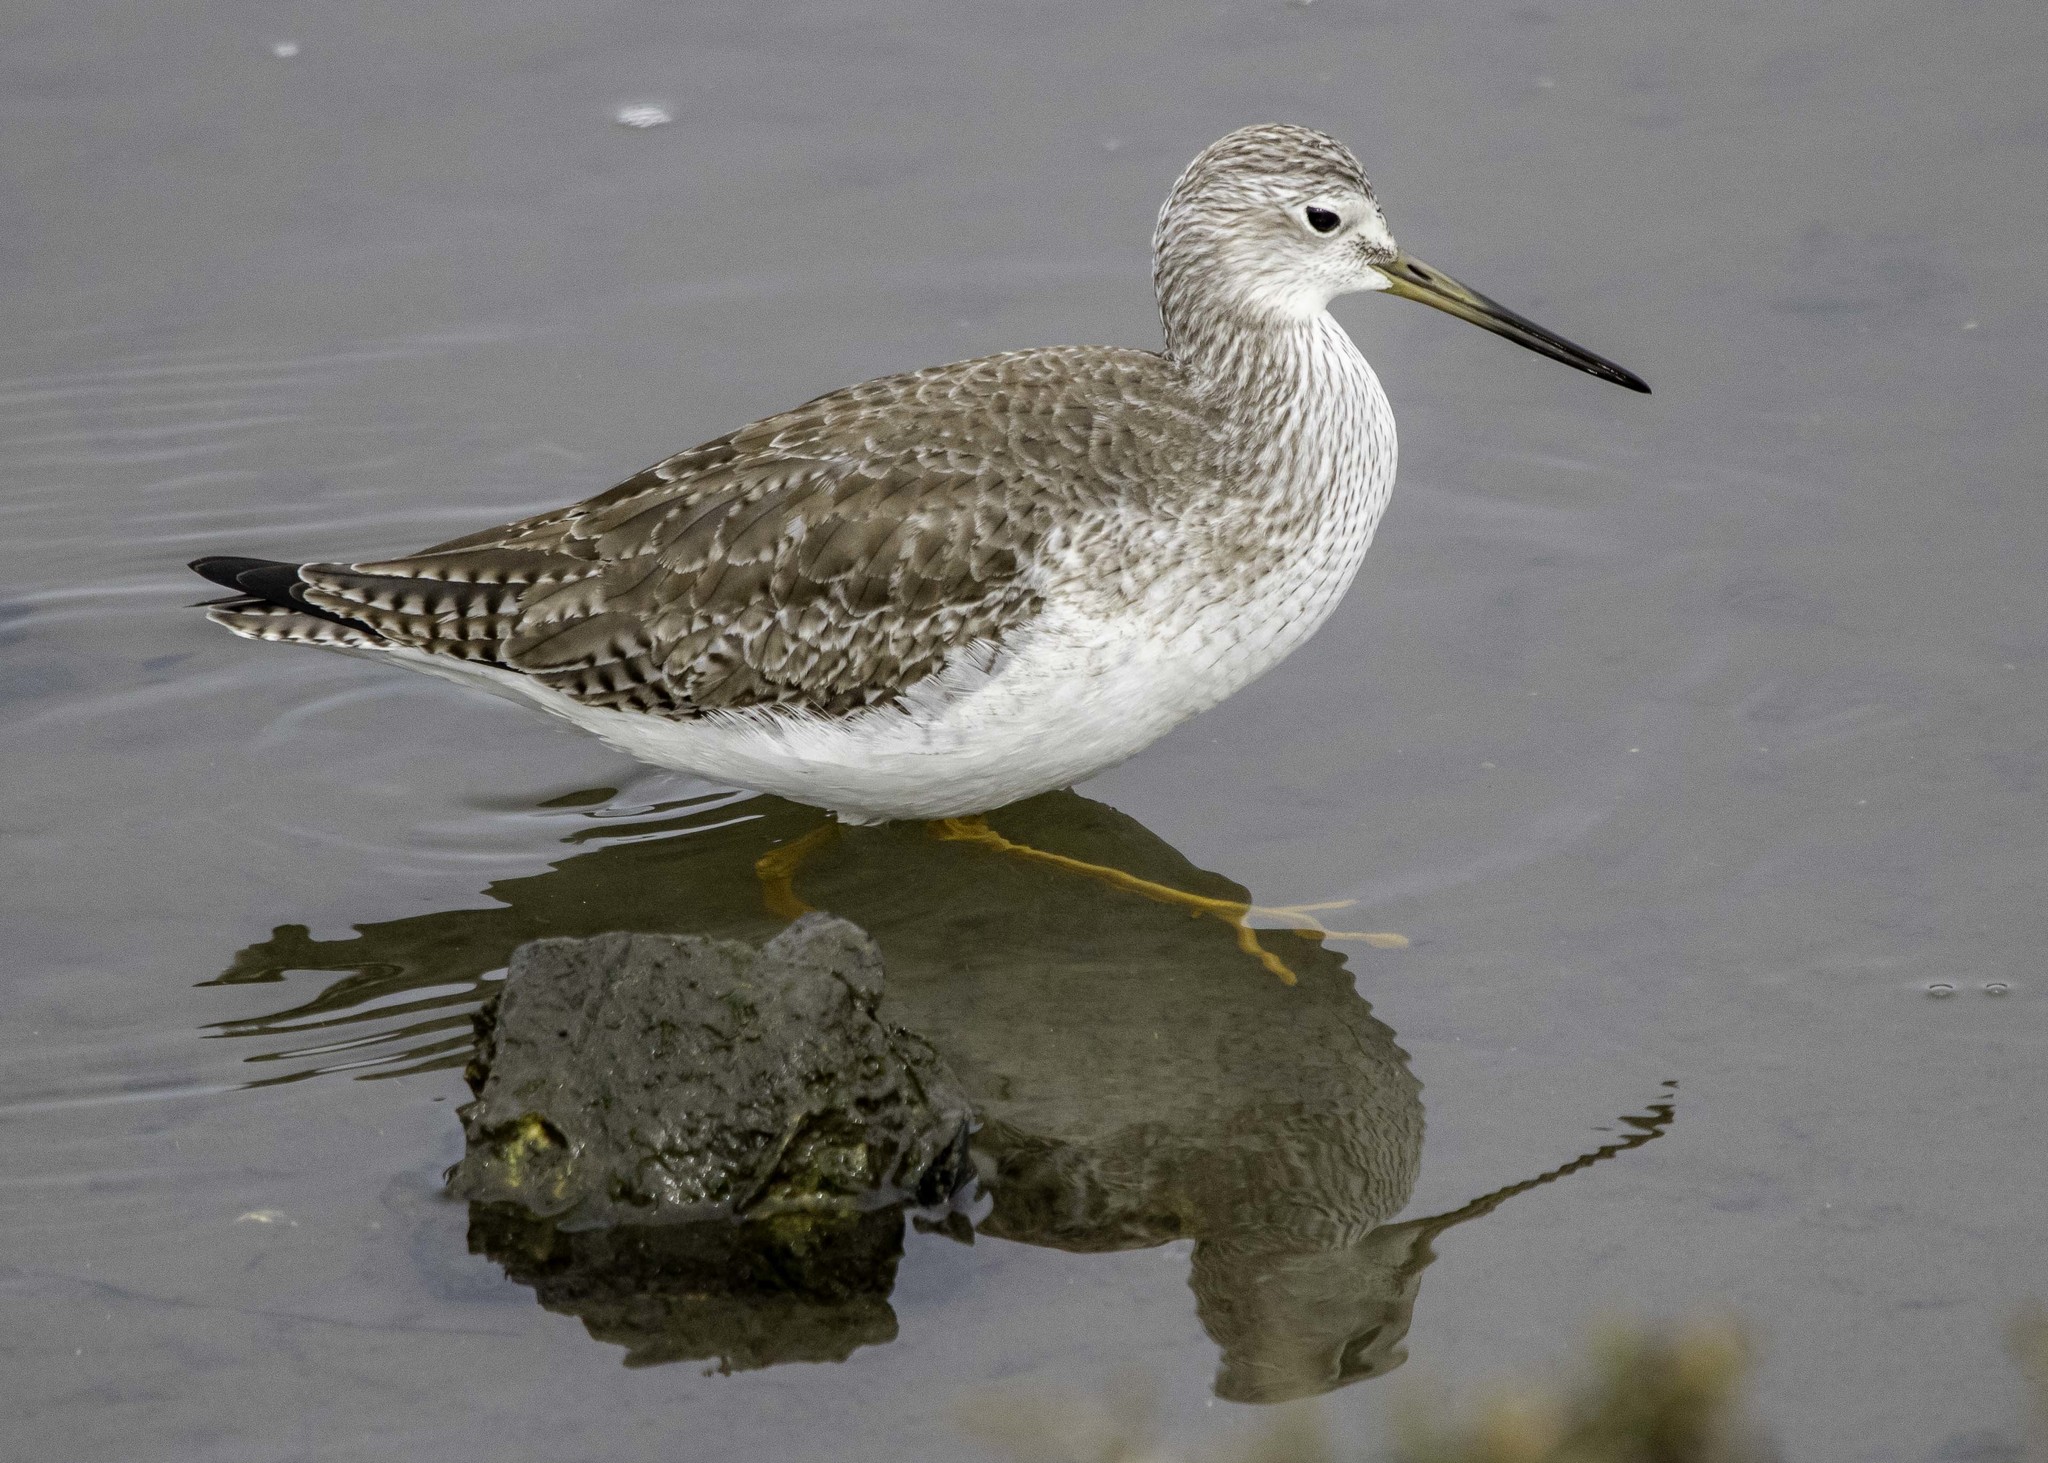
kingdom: Animalia
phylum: Chordata
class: Aves
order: Charadriiformes
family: Scolopacidae
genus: Tringa
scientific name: Tringa melanoleuca
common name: Greater yellowlegs
